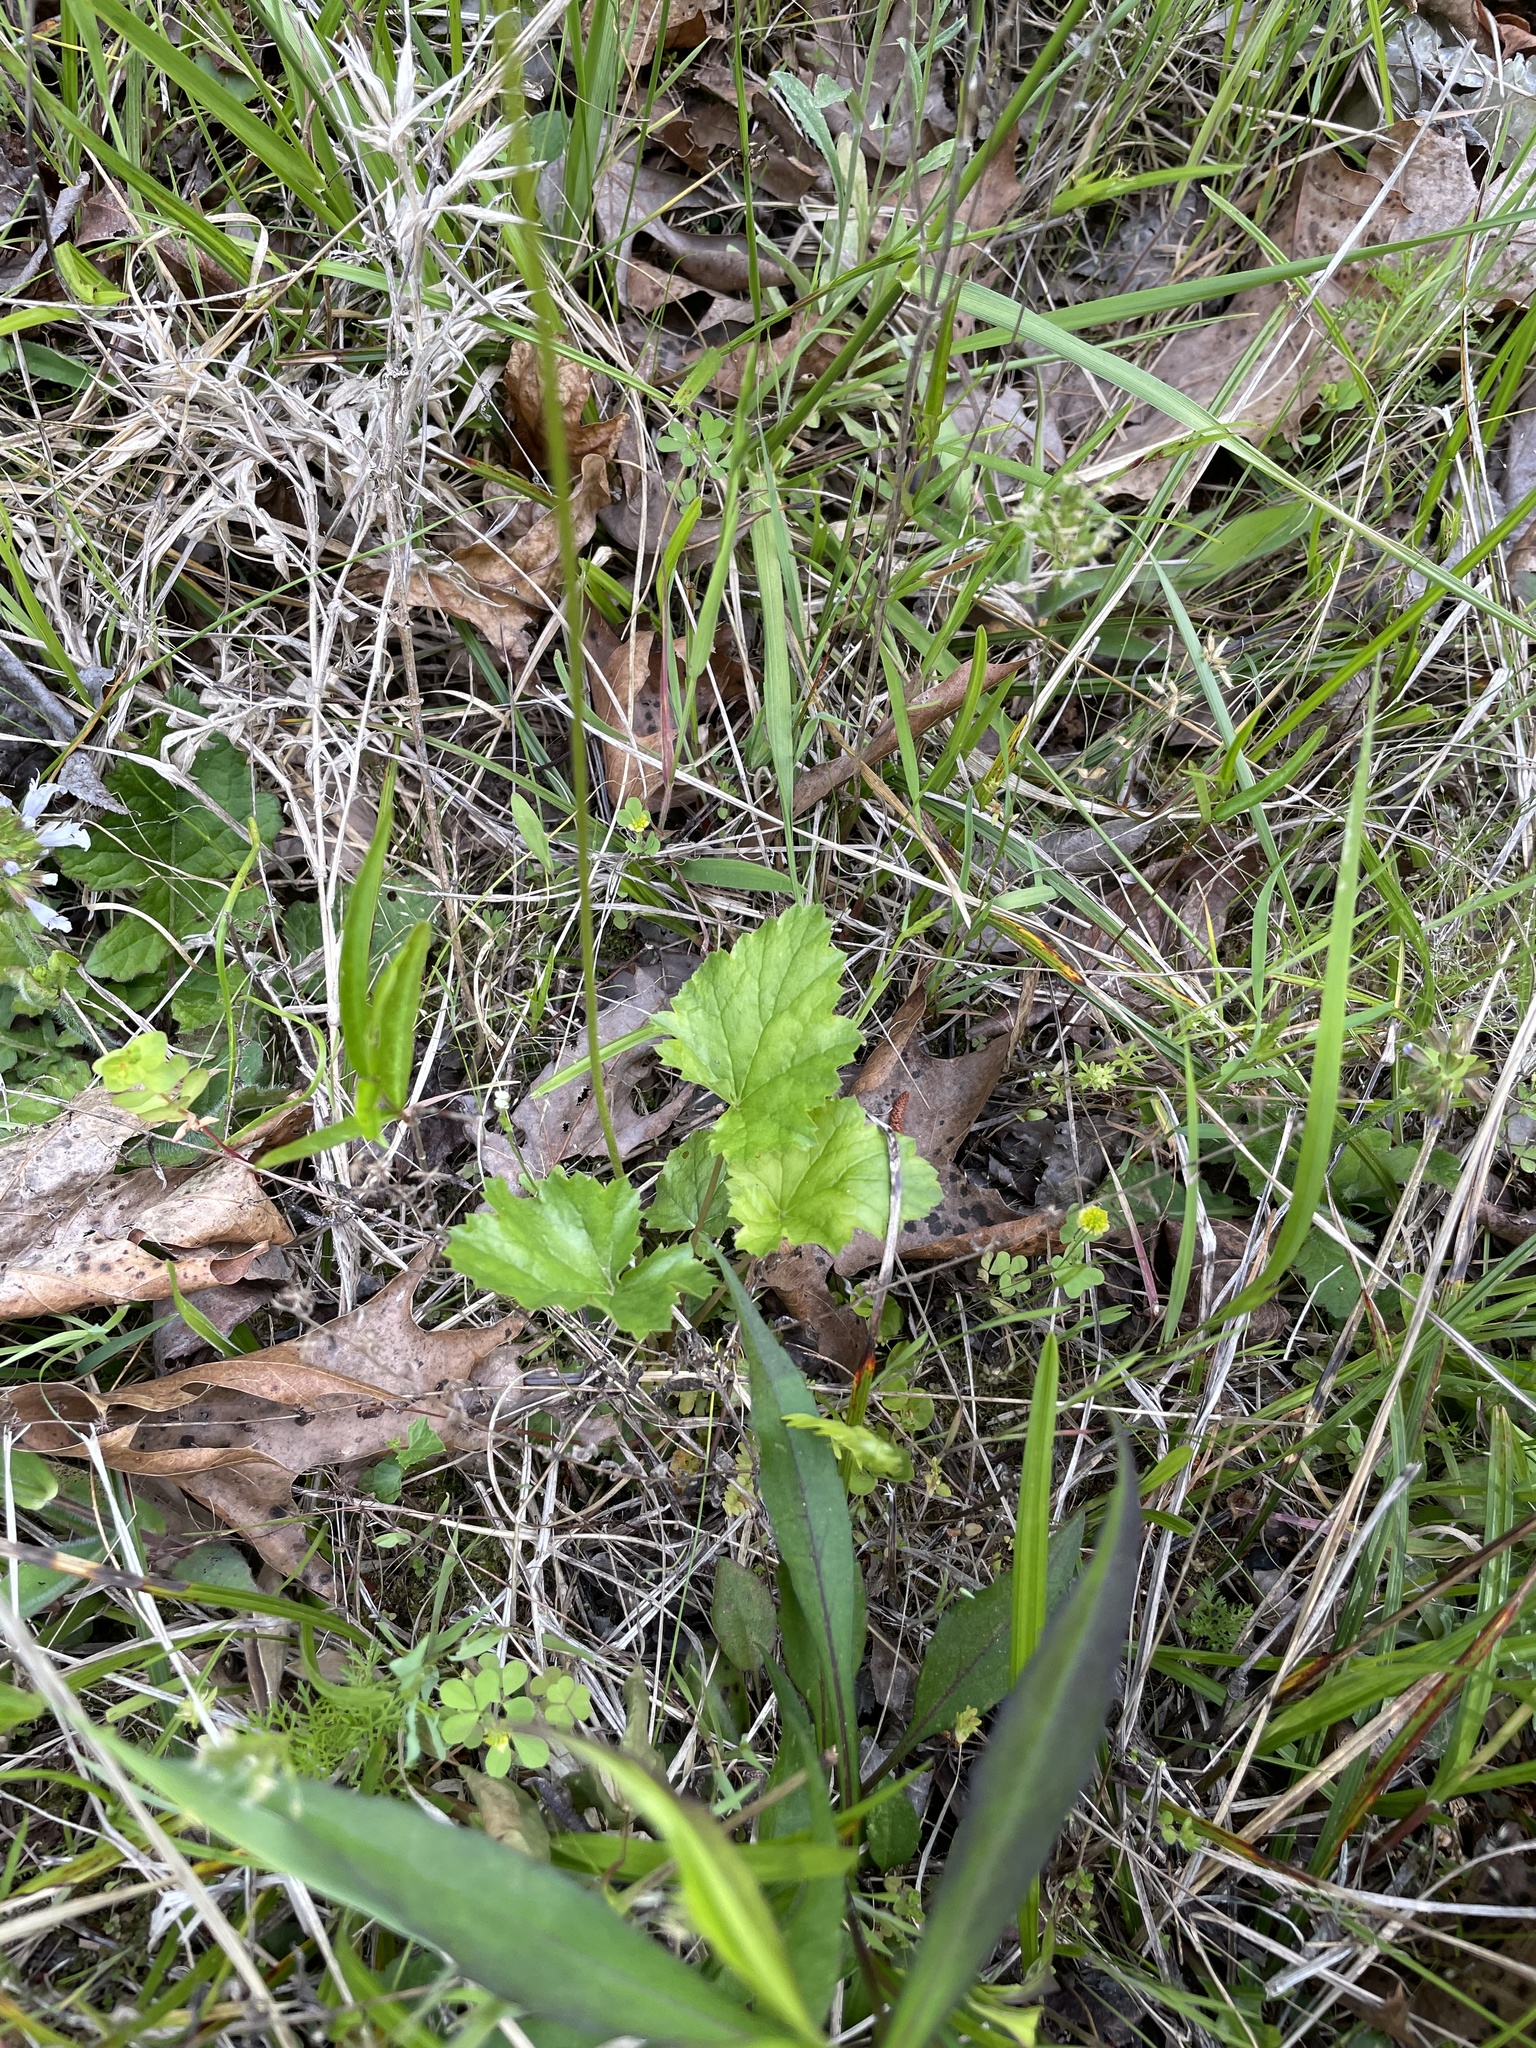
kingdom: Plantae
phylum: Tracheophyta
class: Magnoliopsida
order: Saxifragales
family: Saxifragaceae
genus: Heuchera
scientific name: Heuchera caroliniana
